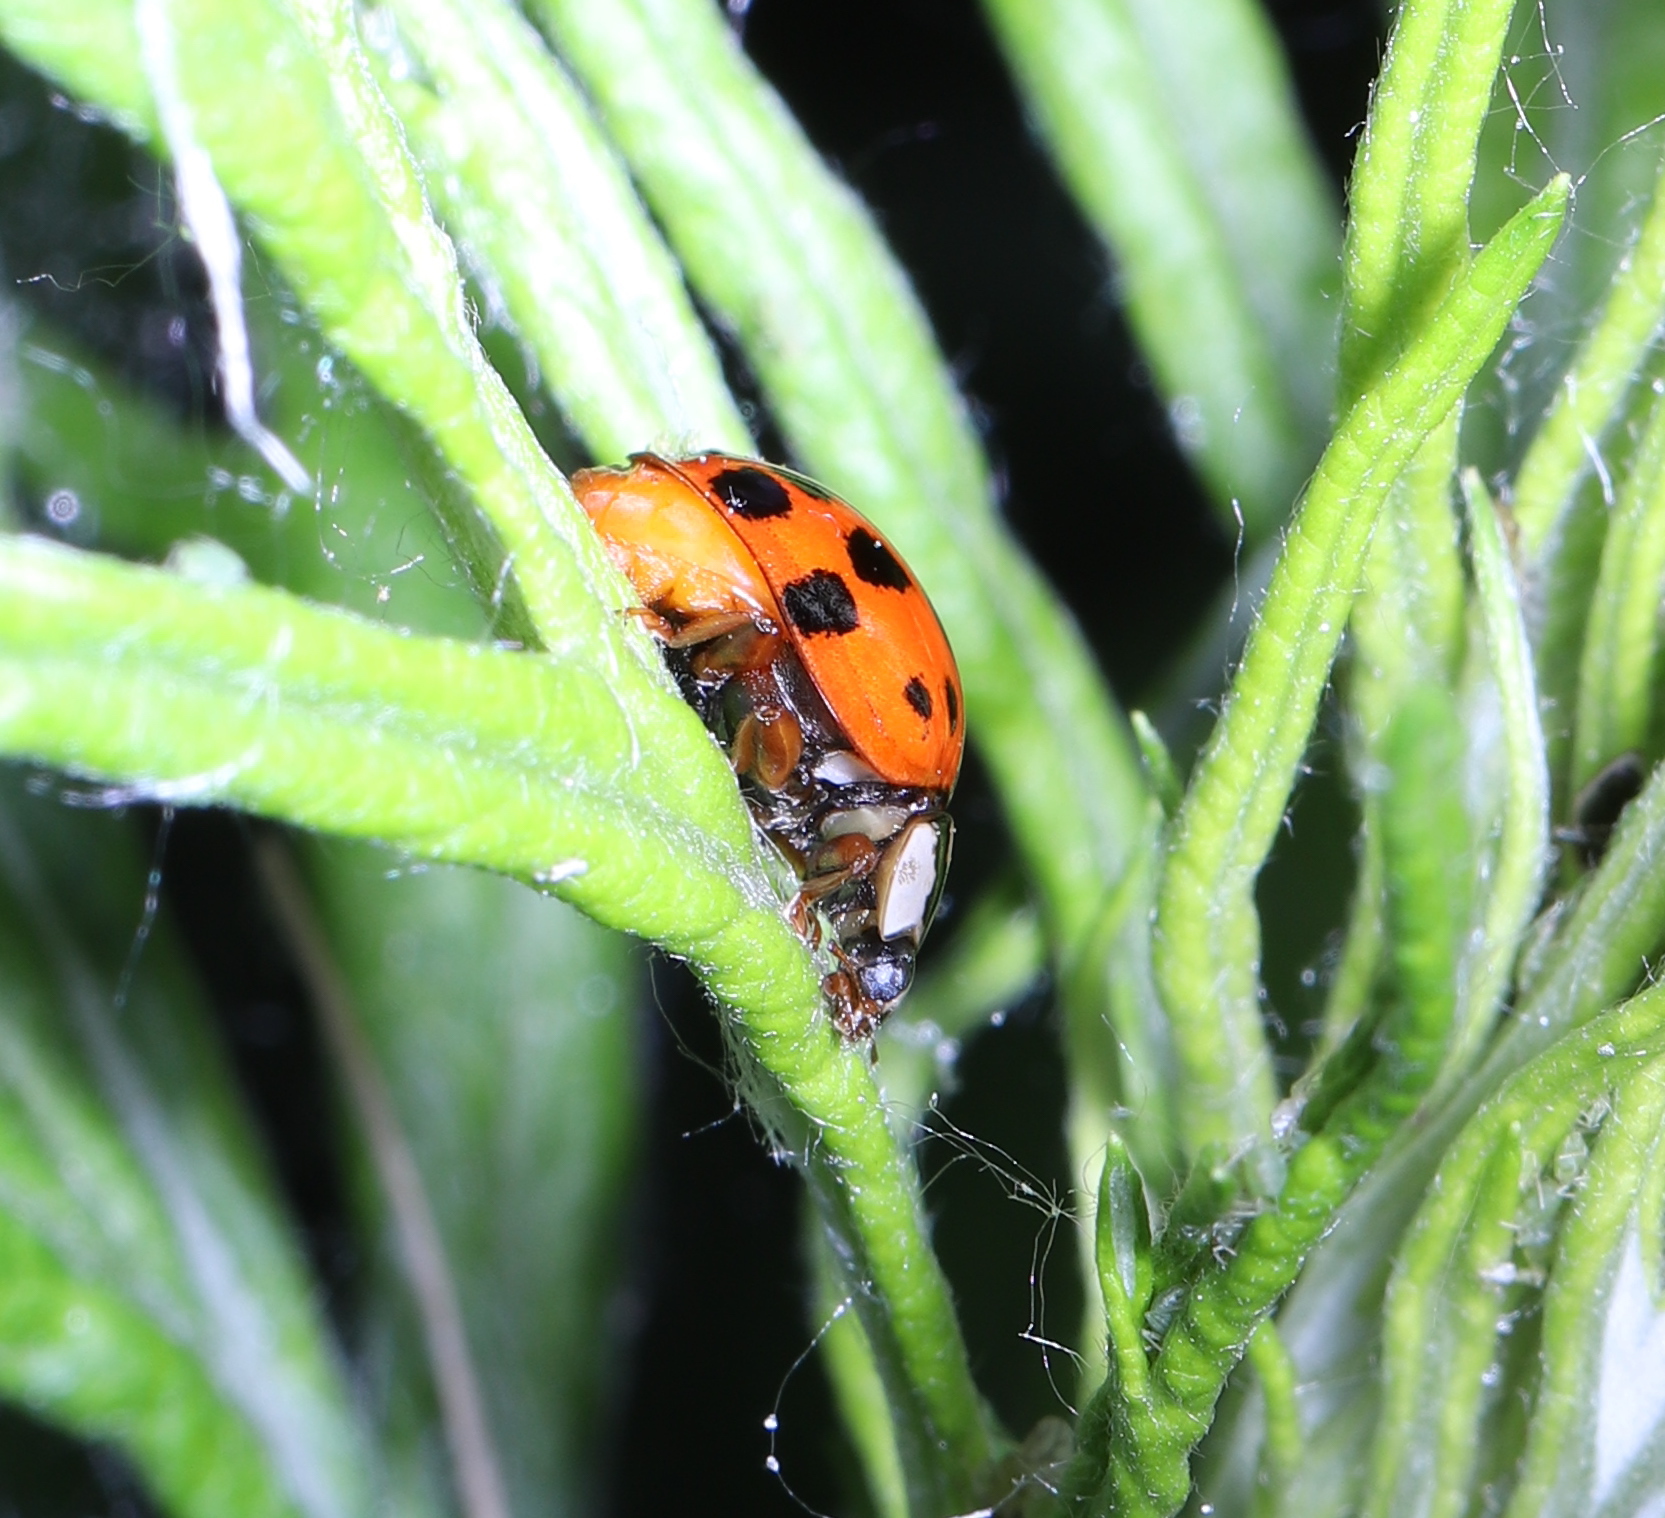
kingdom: Animalia
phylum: Arthropoda
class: Insecta
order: Coleoptera
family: Coccinellidae
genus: Harmonia
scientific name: Harmonia axyridis
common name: Harlequin ladybird
